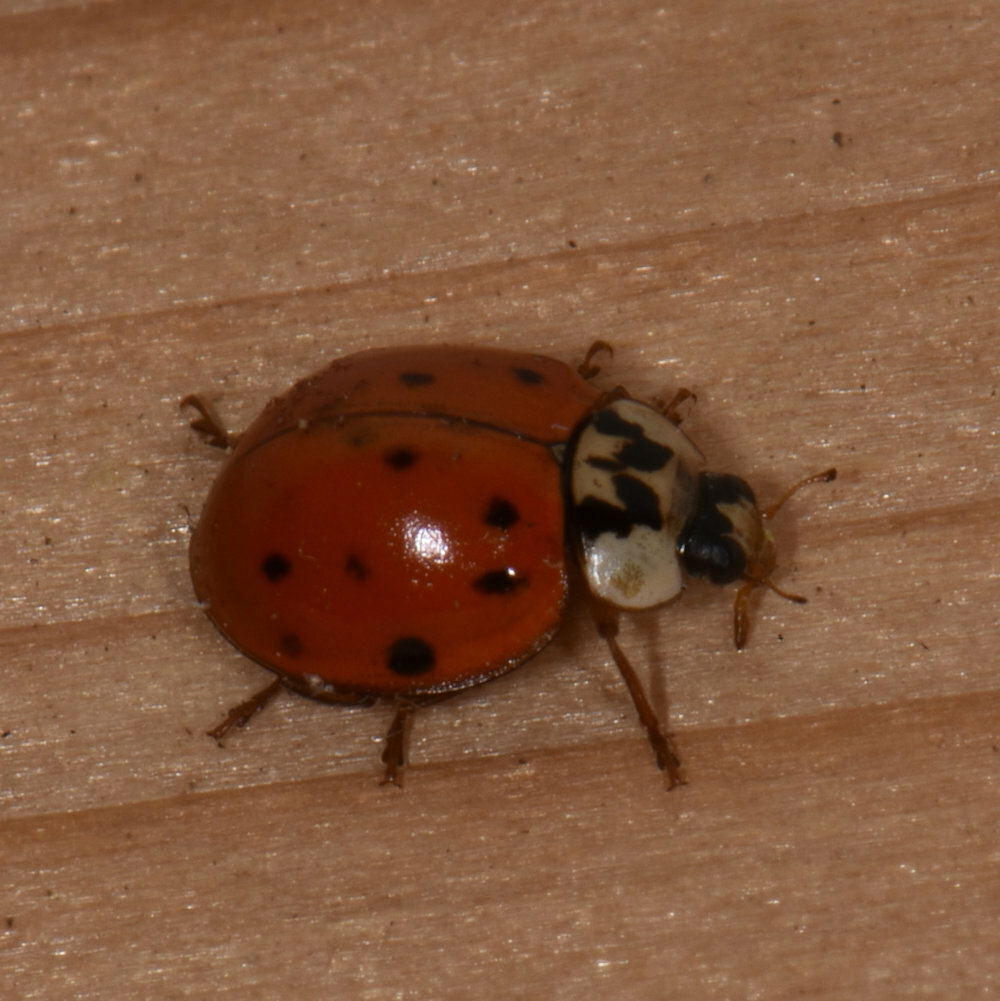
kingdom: Animalia
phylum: Arthropoda
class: Insecta
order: Coleoptera
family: Coccinellidae
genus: Harmonia
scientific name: Harmonia axyridis
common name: Harlequin ladybird
